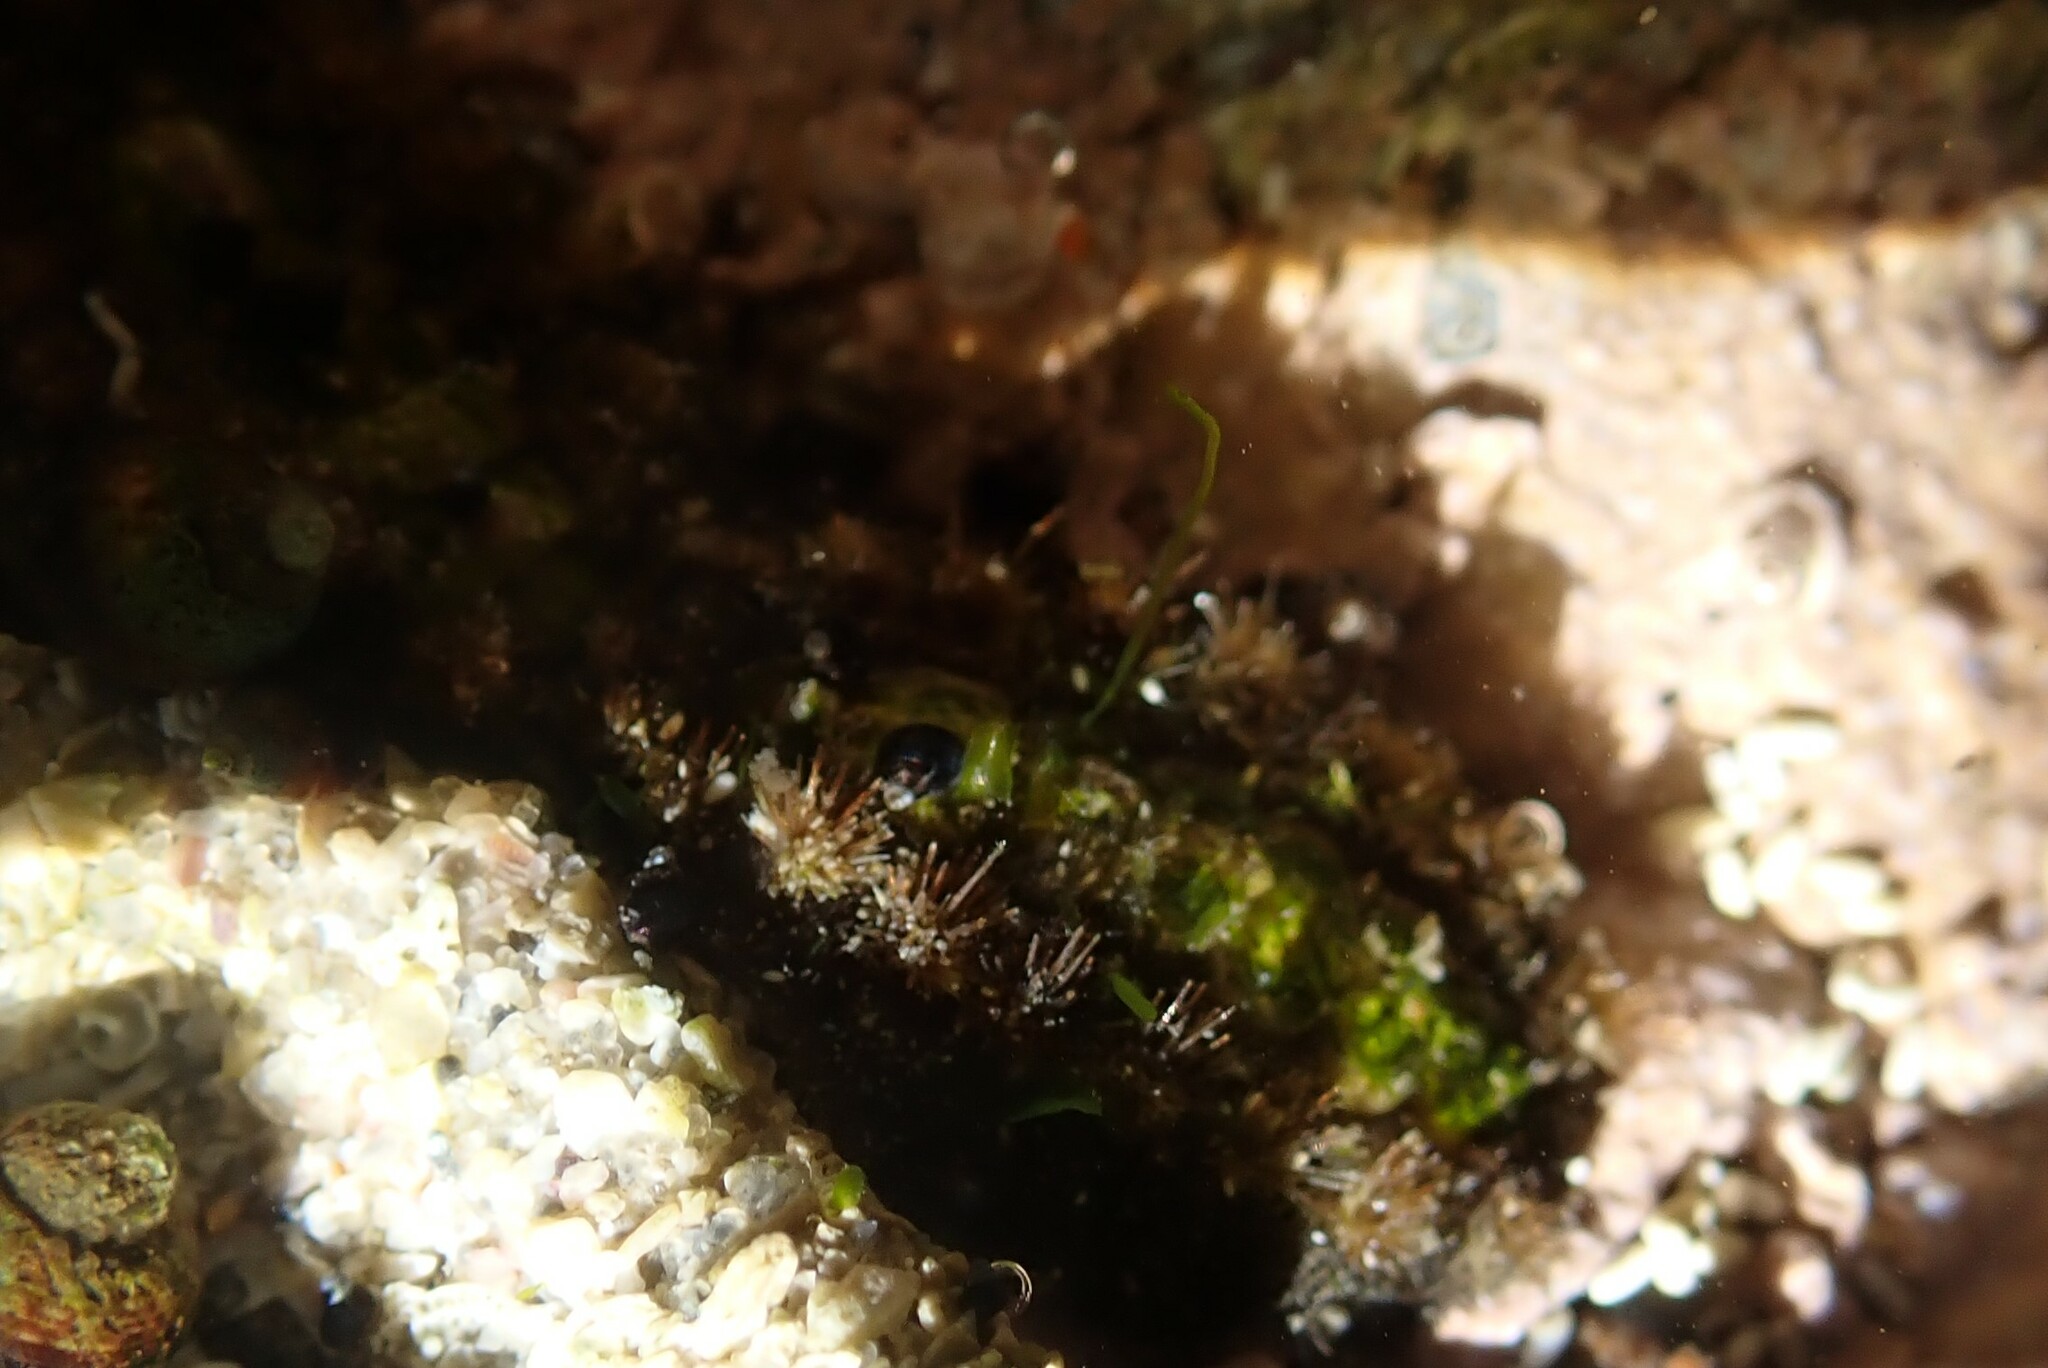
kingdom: Animalia
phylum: Mollusca
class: Polyplacophora
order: Chitonida
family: Acanthochitonidae
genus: Acanthochitona
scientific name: Acanthochitona garnoti
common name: Spiny chiton
